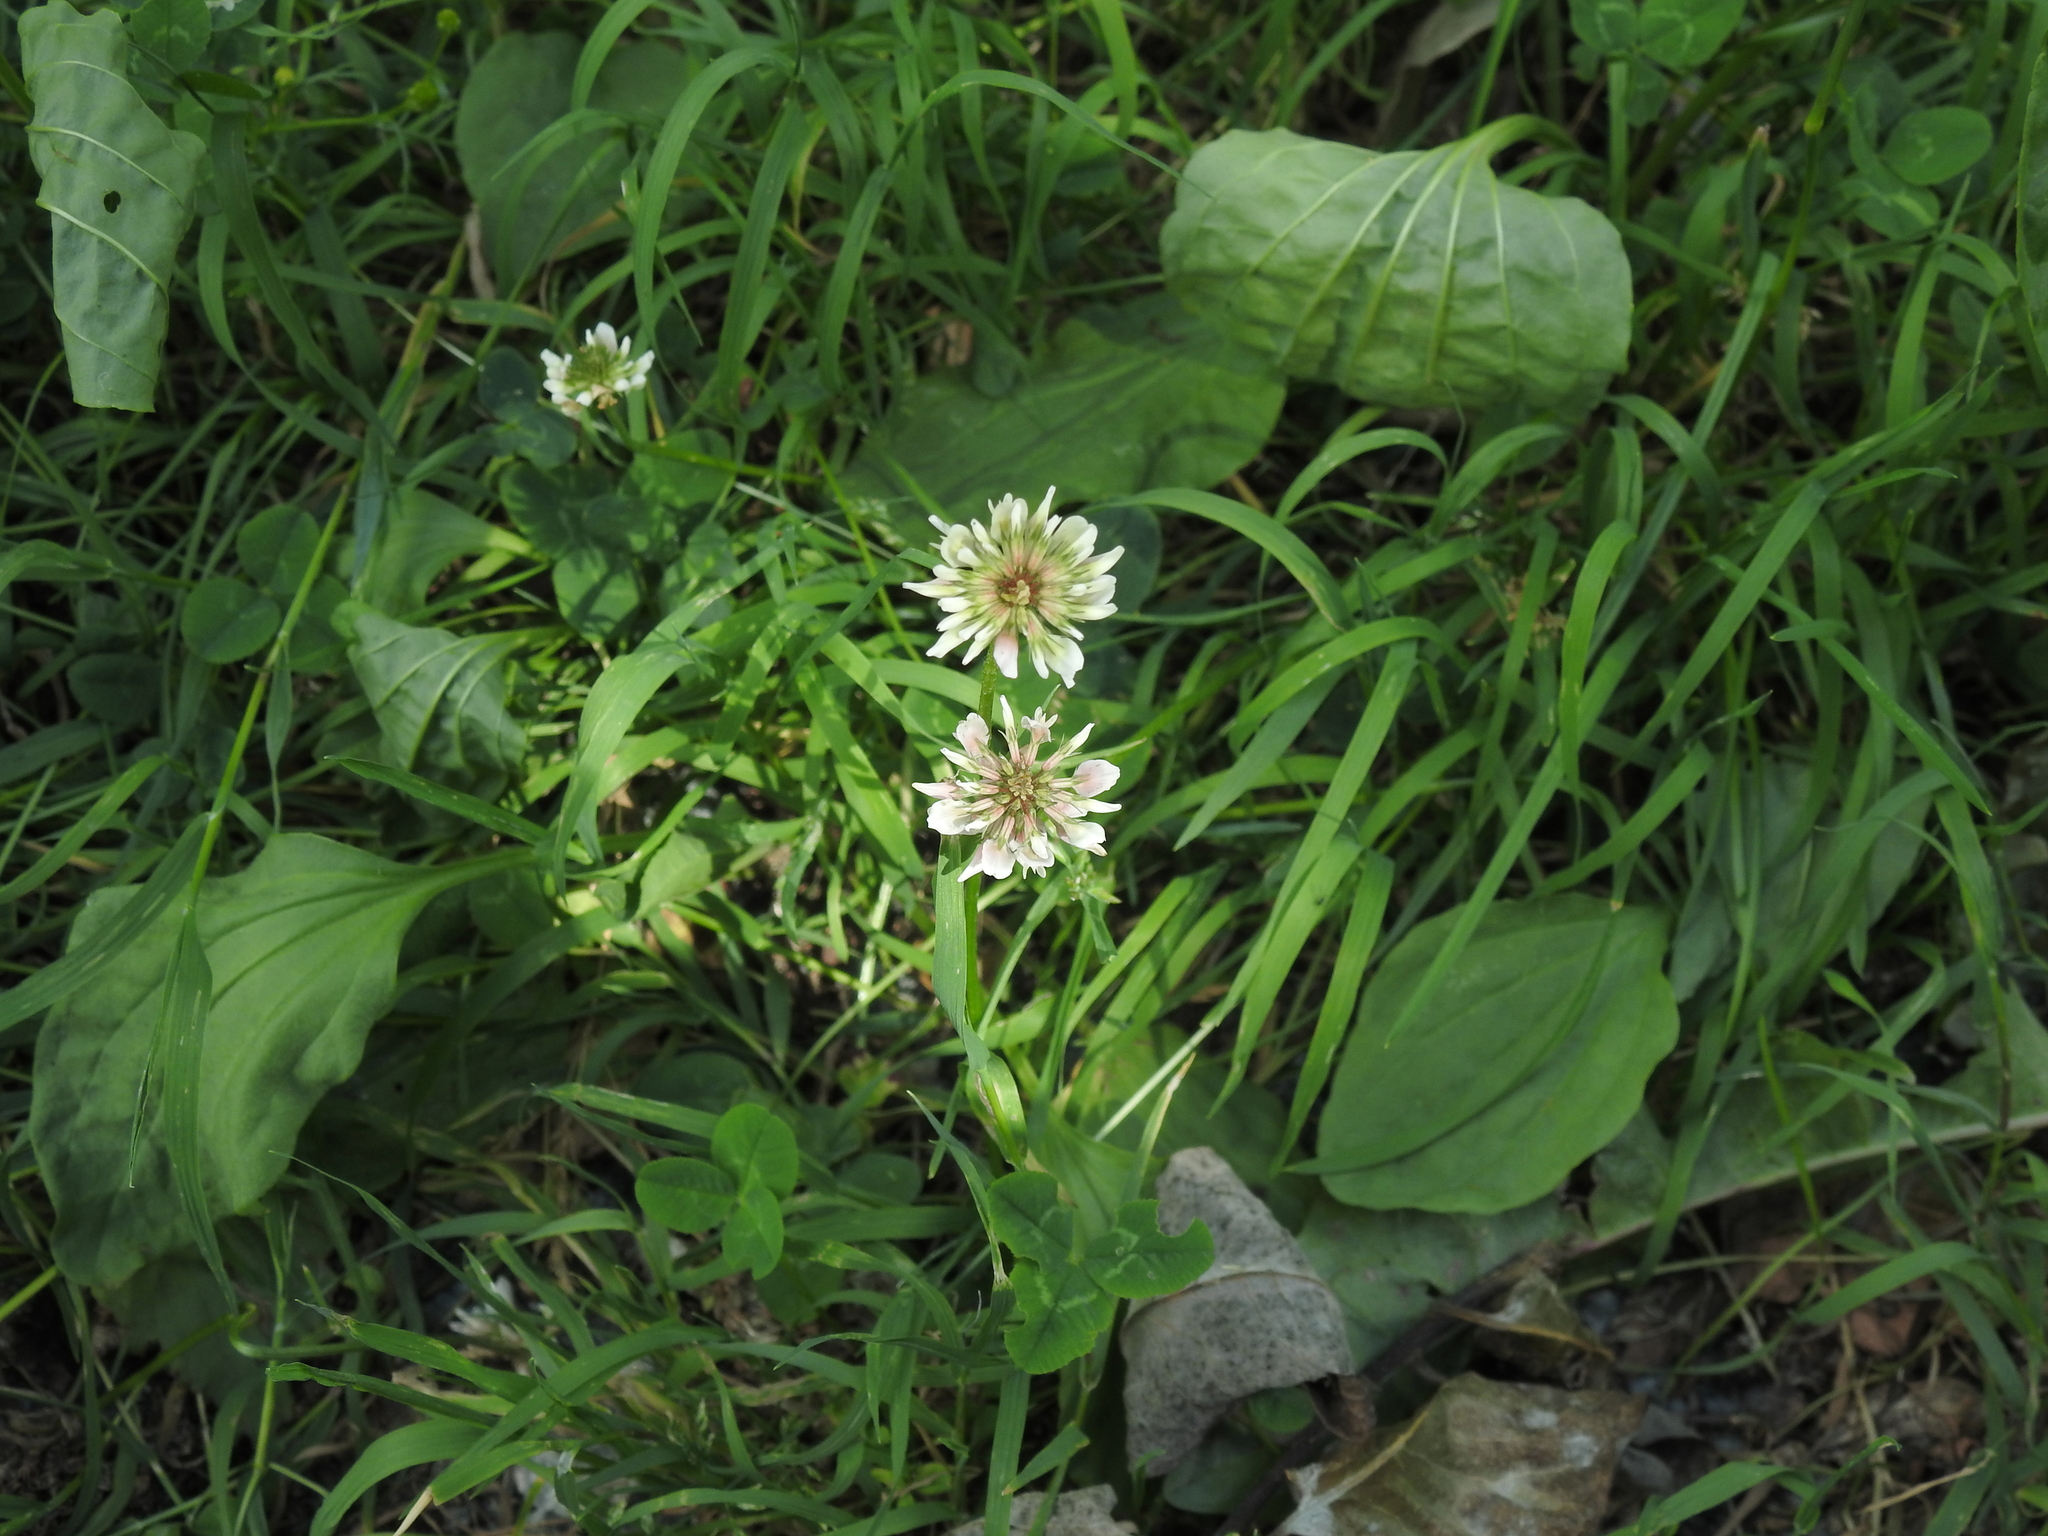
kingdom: Plantae
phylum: Tracheophyta
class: Magnoliopsida
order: Fabales
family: Fabaceae
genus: Trifolium
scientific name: Trifolium repens
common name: White clover
